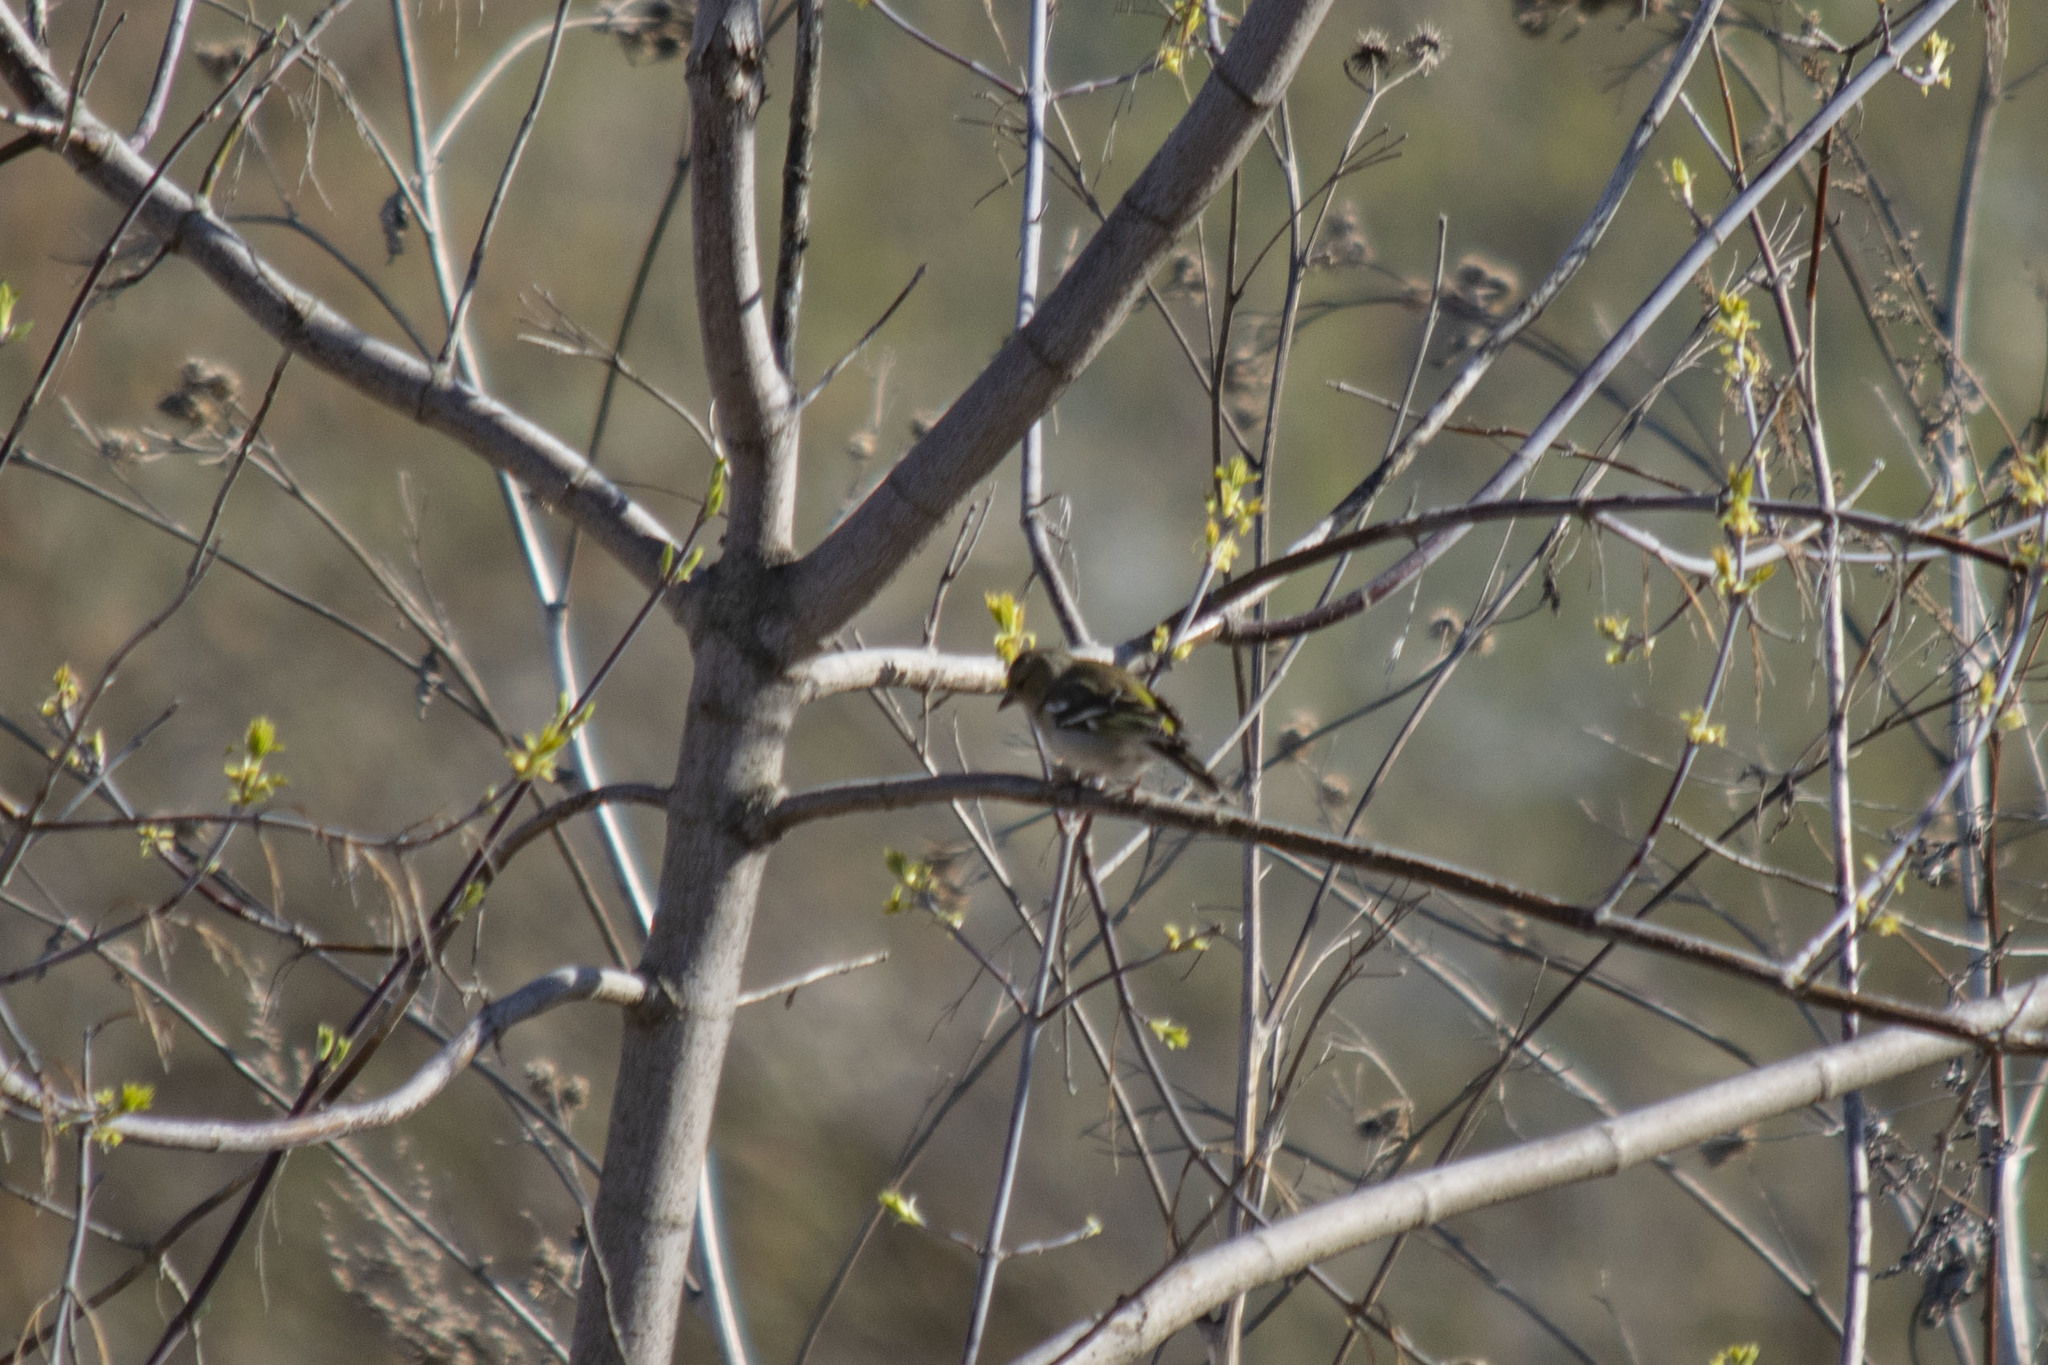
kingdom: Animalia
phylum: Chordata
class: Aves
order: Passeriformes
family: Fringillidae
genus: Fringilla
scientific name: Fringilla coelebs
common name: Common chaffinch
